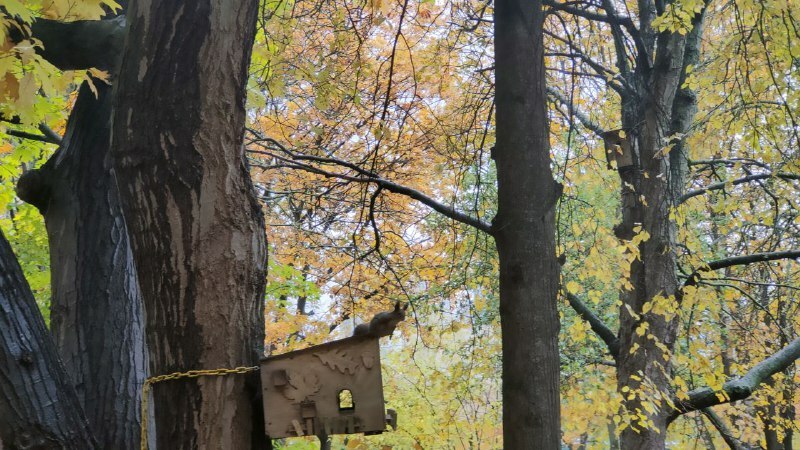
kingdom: Animalia
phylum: Chordata
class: Mammalia
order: Rodentia
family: Sciuridae
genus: Sciurus
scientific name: Sciurus vulgaris
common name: Eurasian red squirrel
